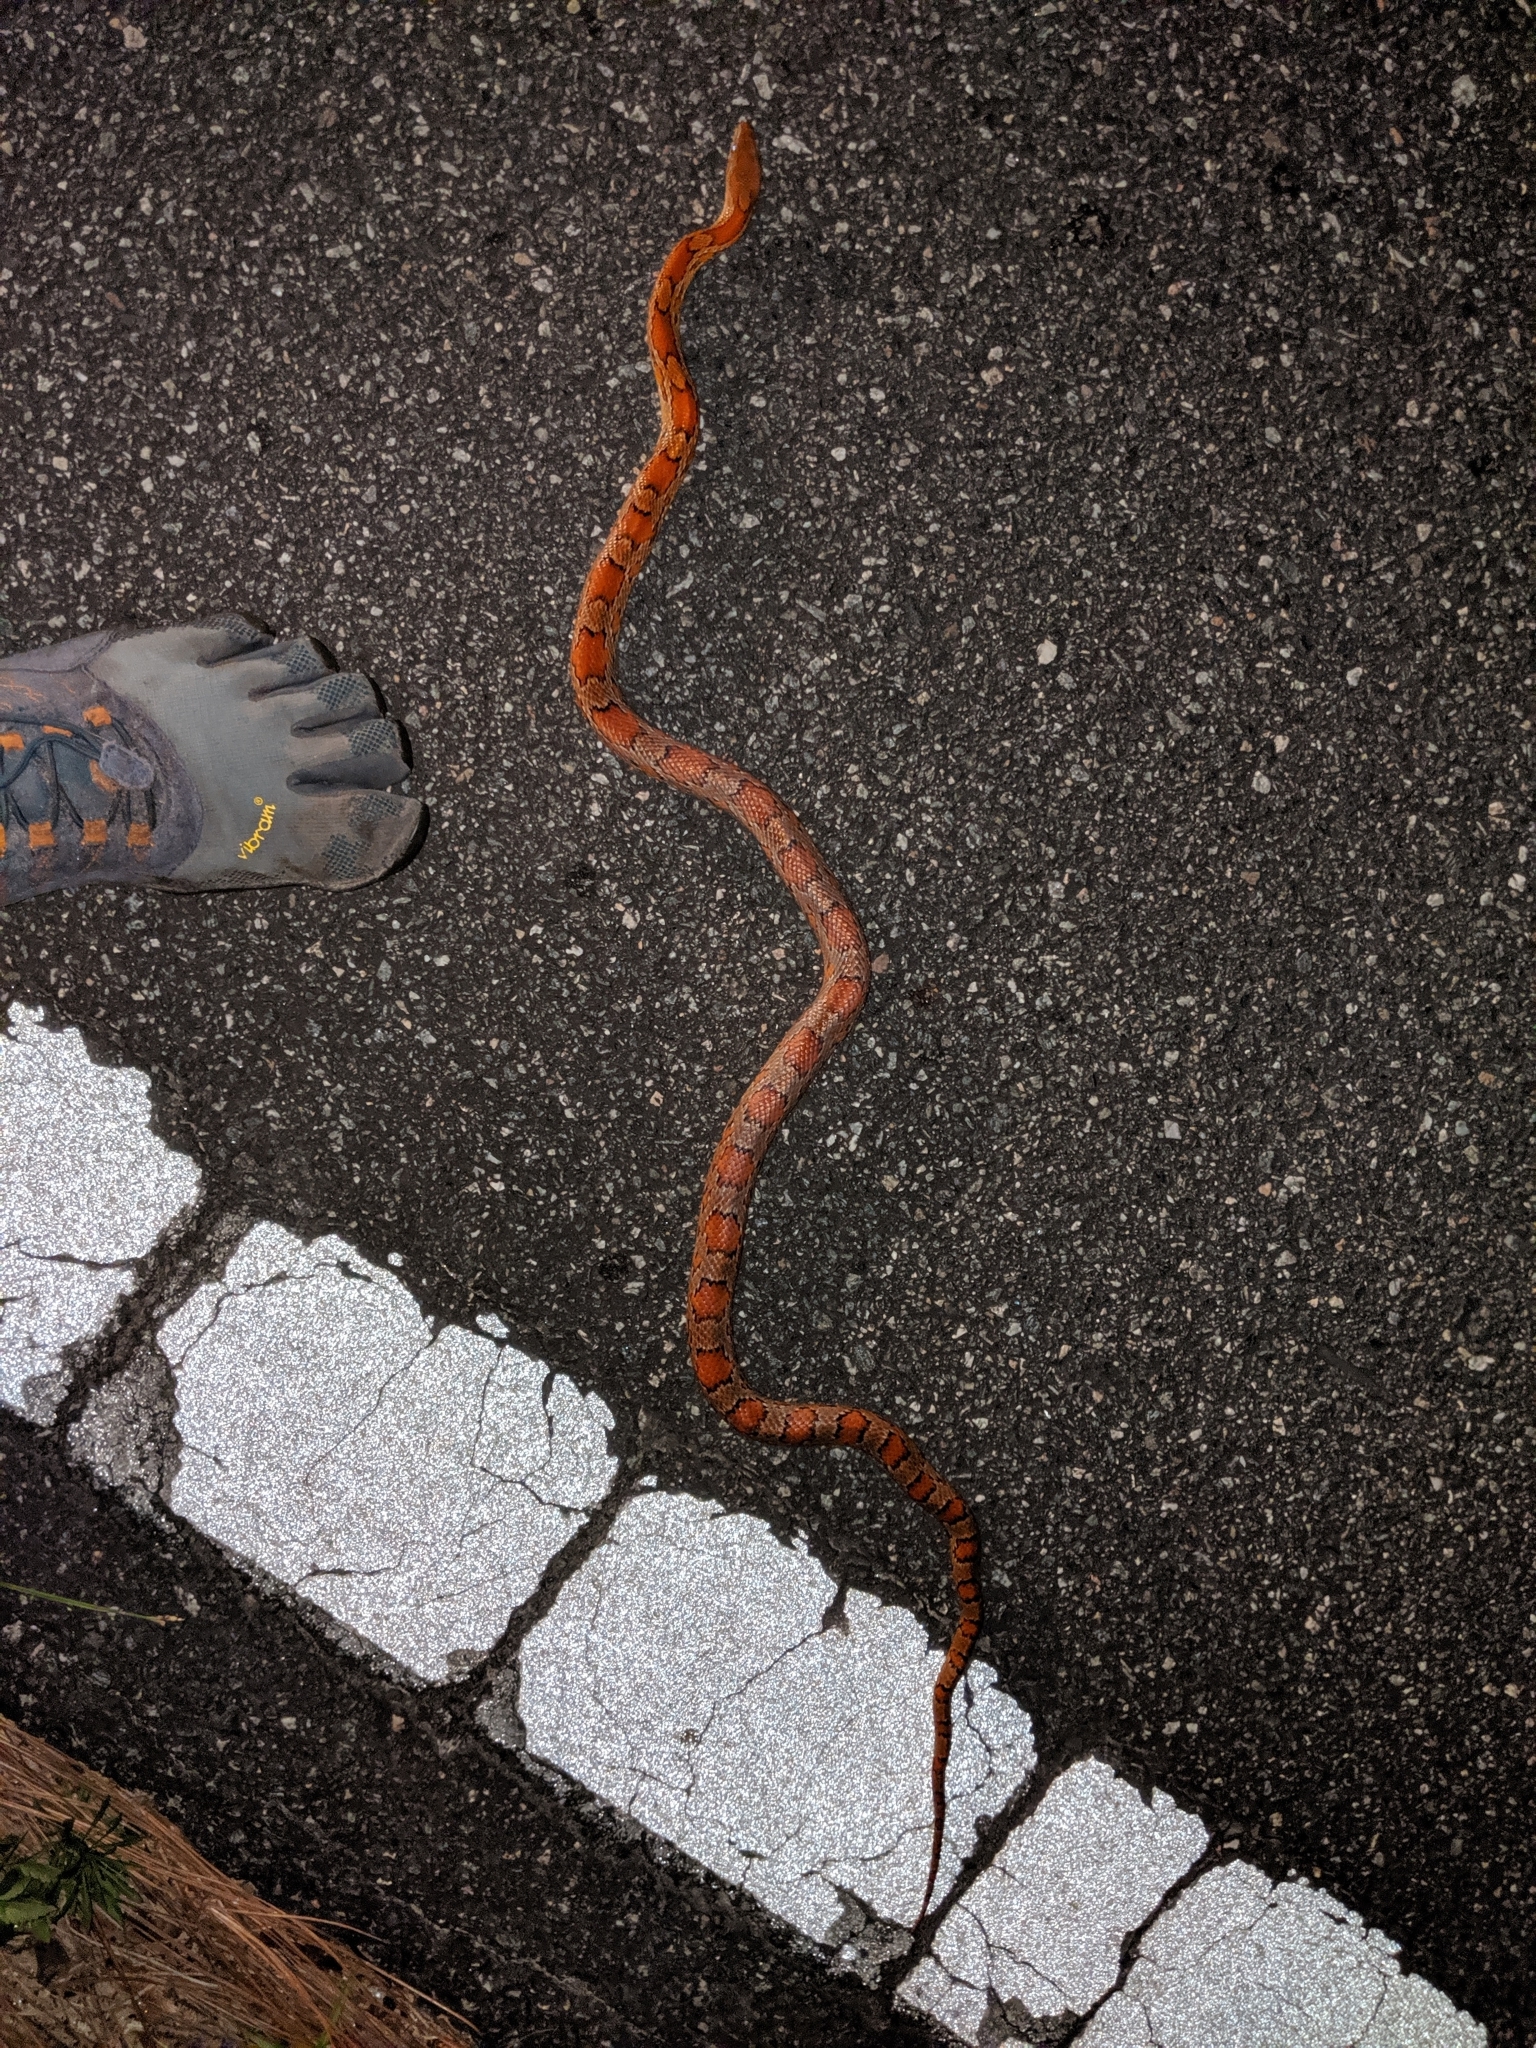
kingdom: Animalia
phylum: Chordata
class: Squamata
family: Colubridae
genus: Pantherophis
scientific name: Pantherophis guttatus
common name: Red cornsnake
